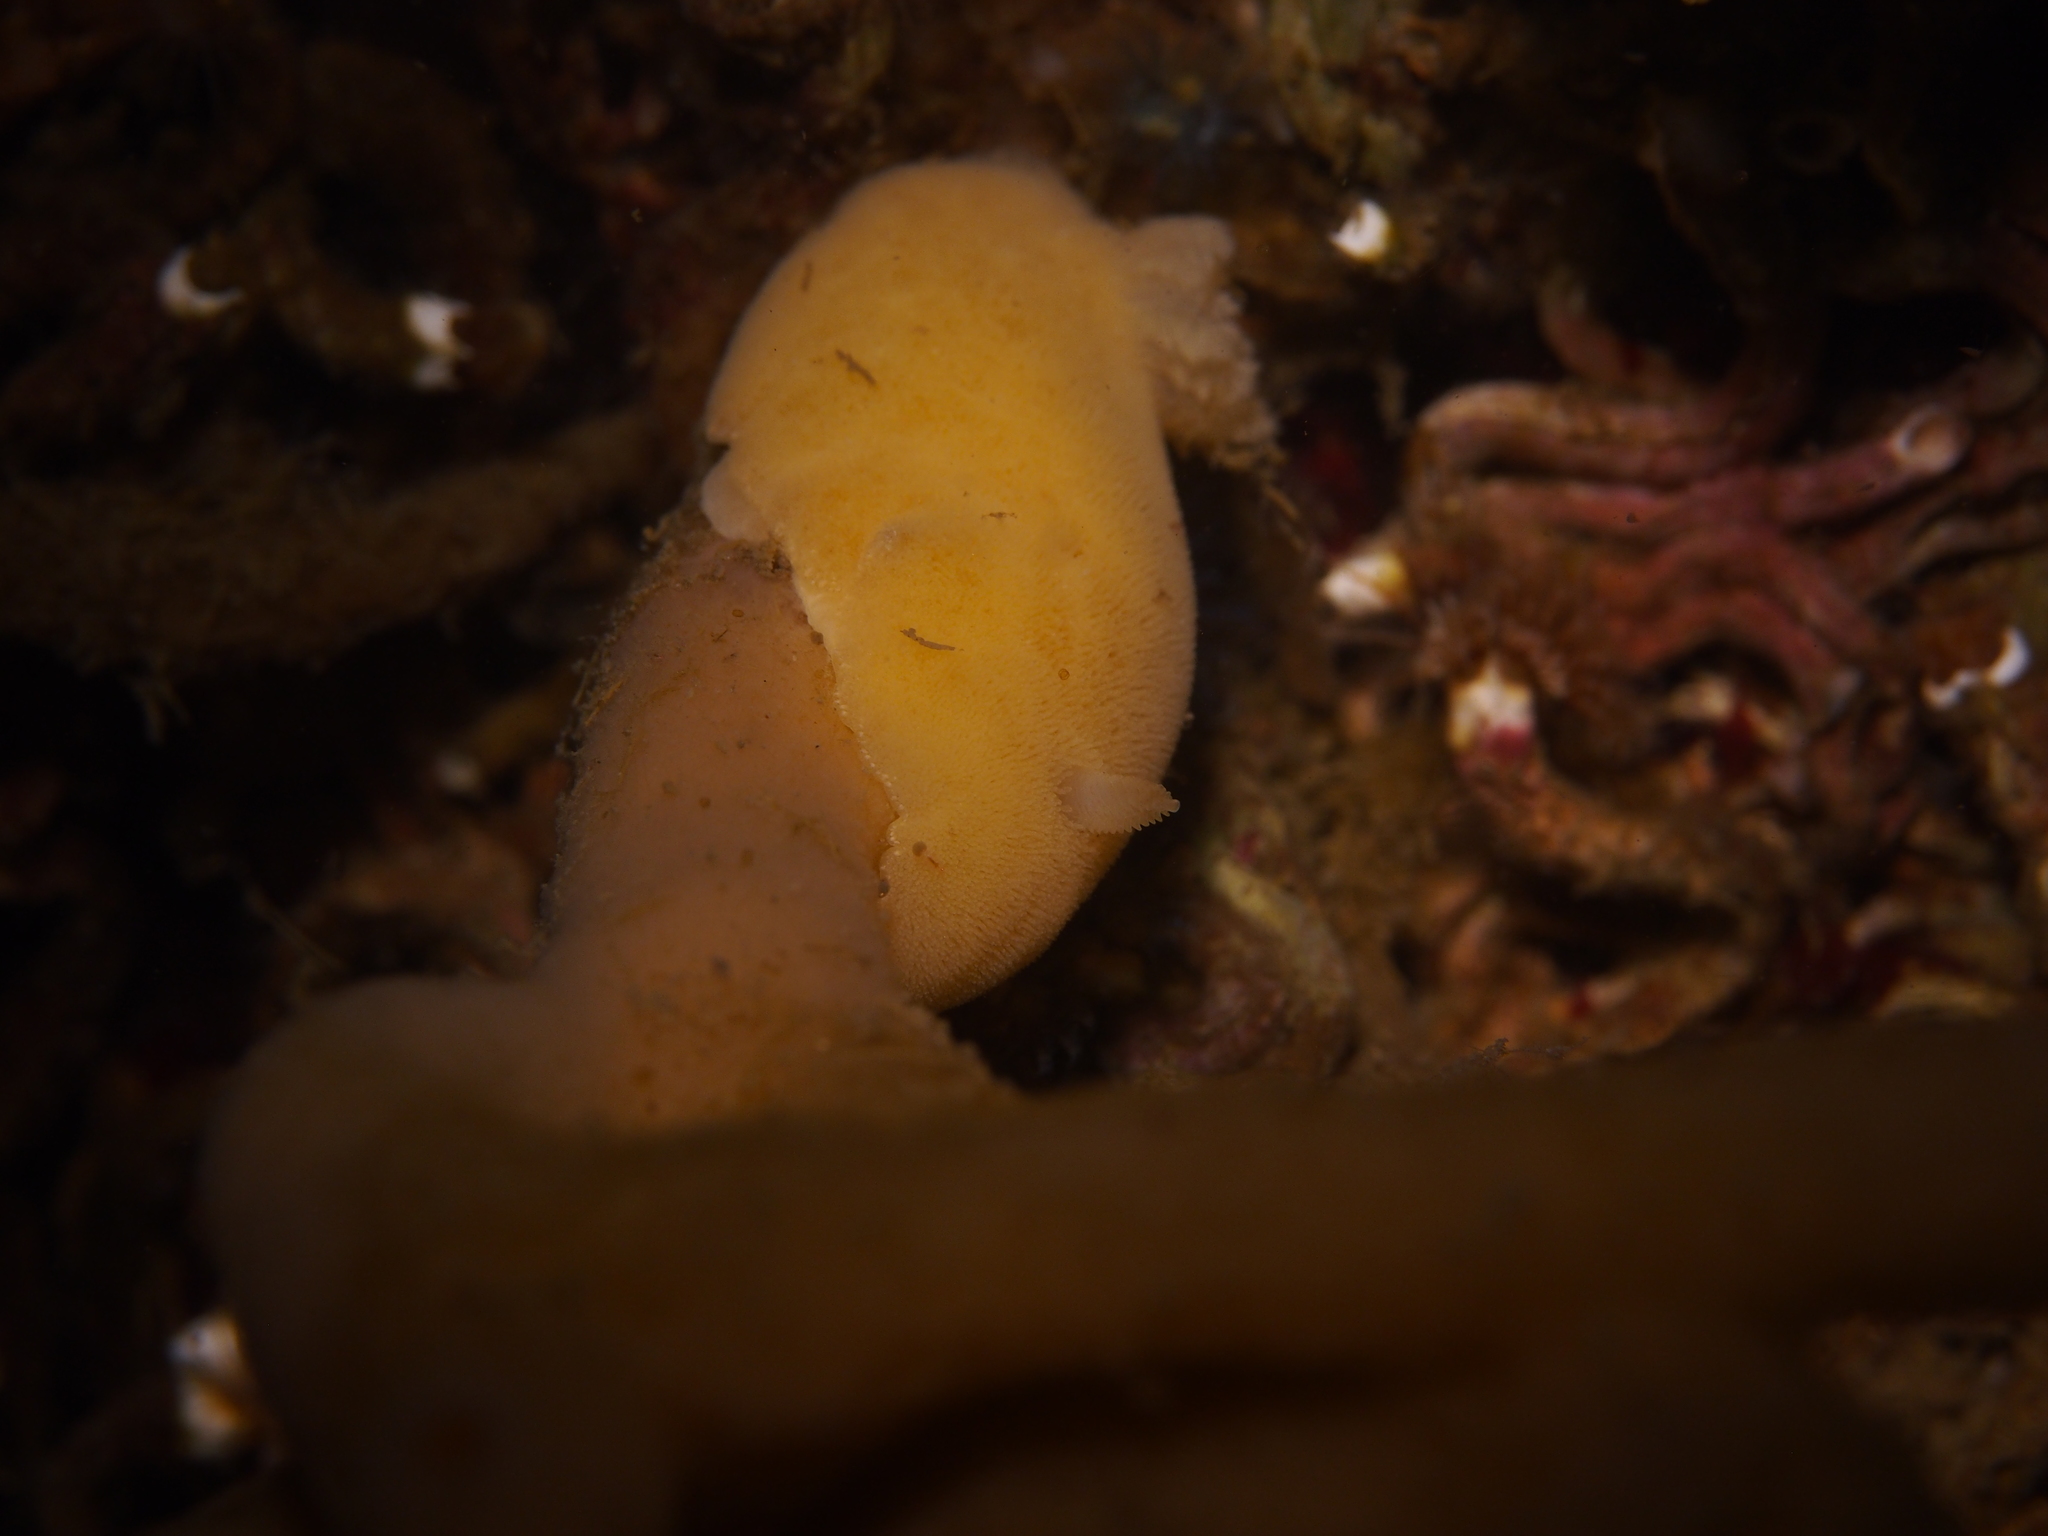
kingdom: Animalia
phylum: Mollusca
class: Gastropoda
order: Nudibranchia
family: Discodorididae
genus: Jorunna
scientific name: Jorunna tomentosa
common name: Grey sea slug
